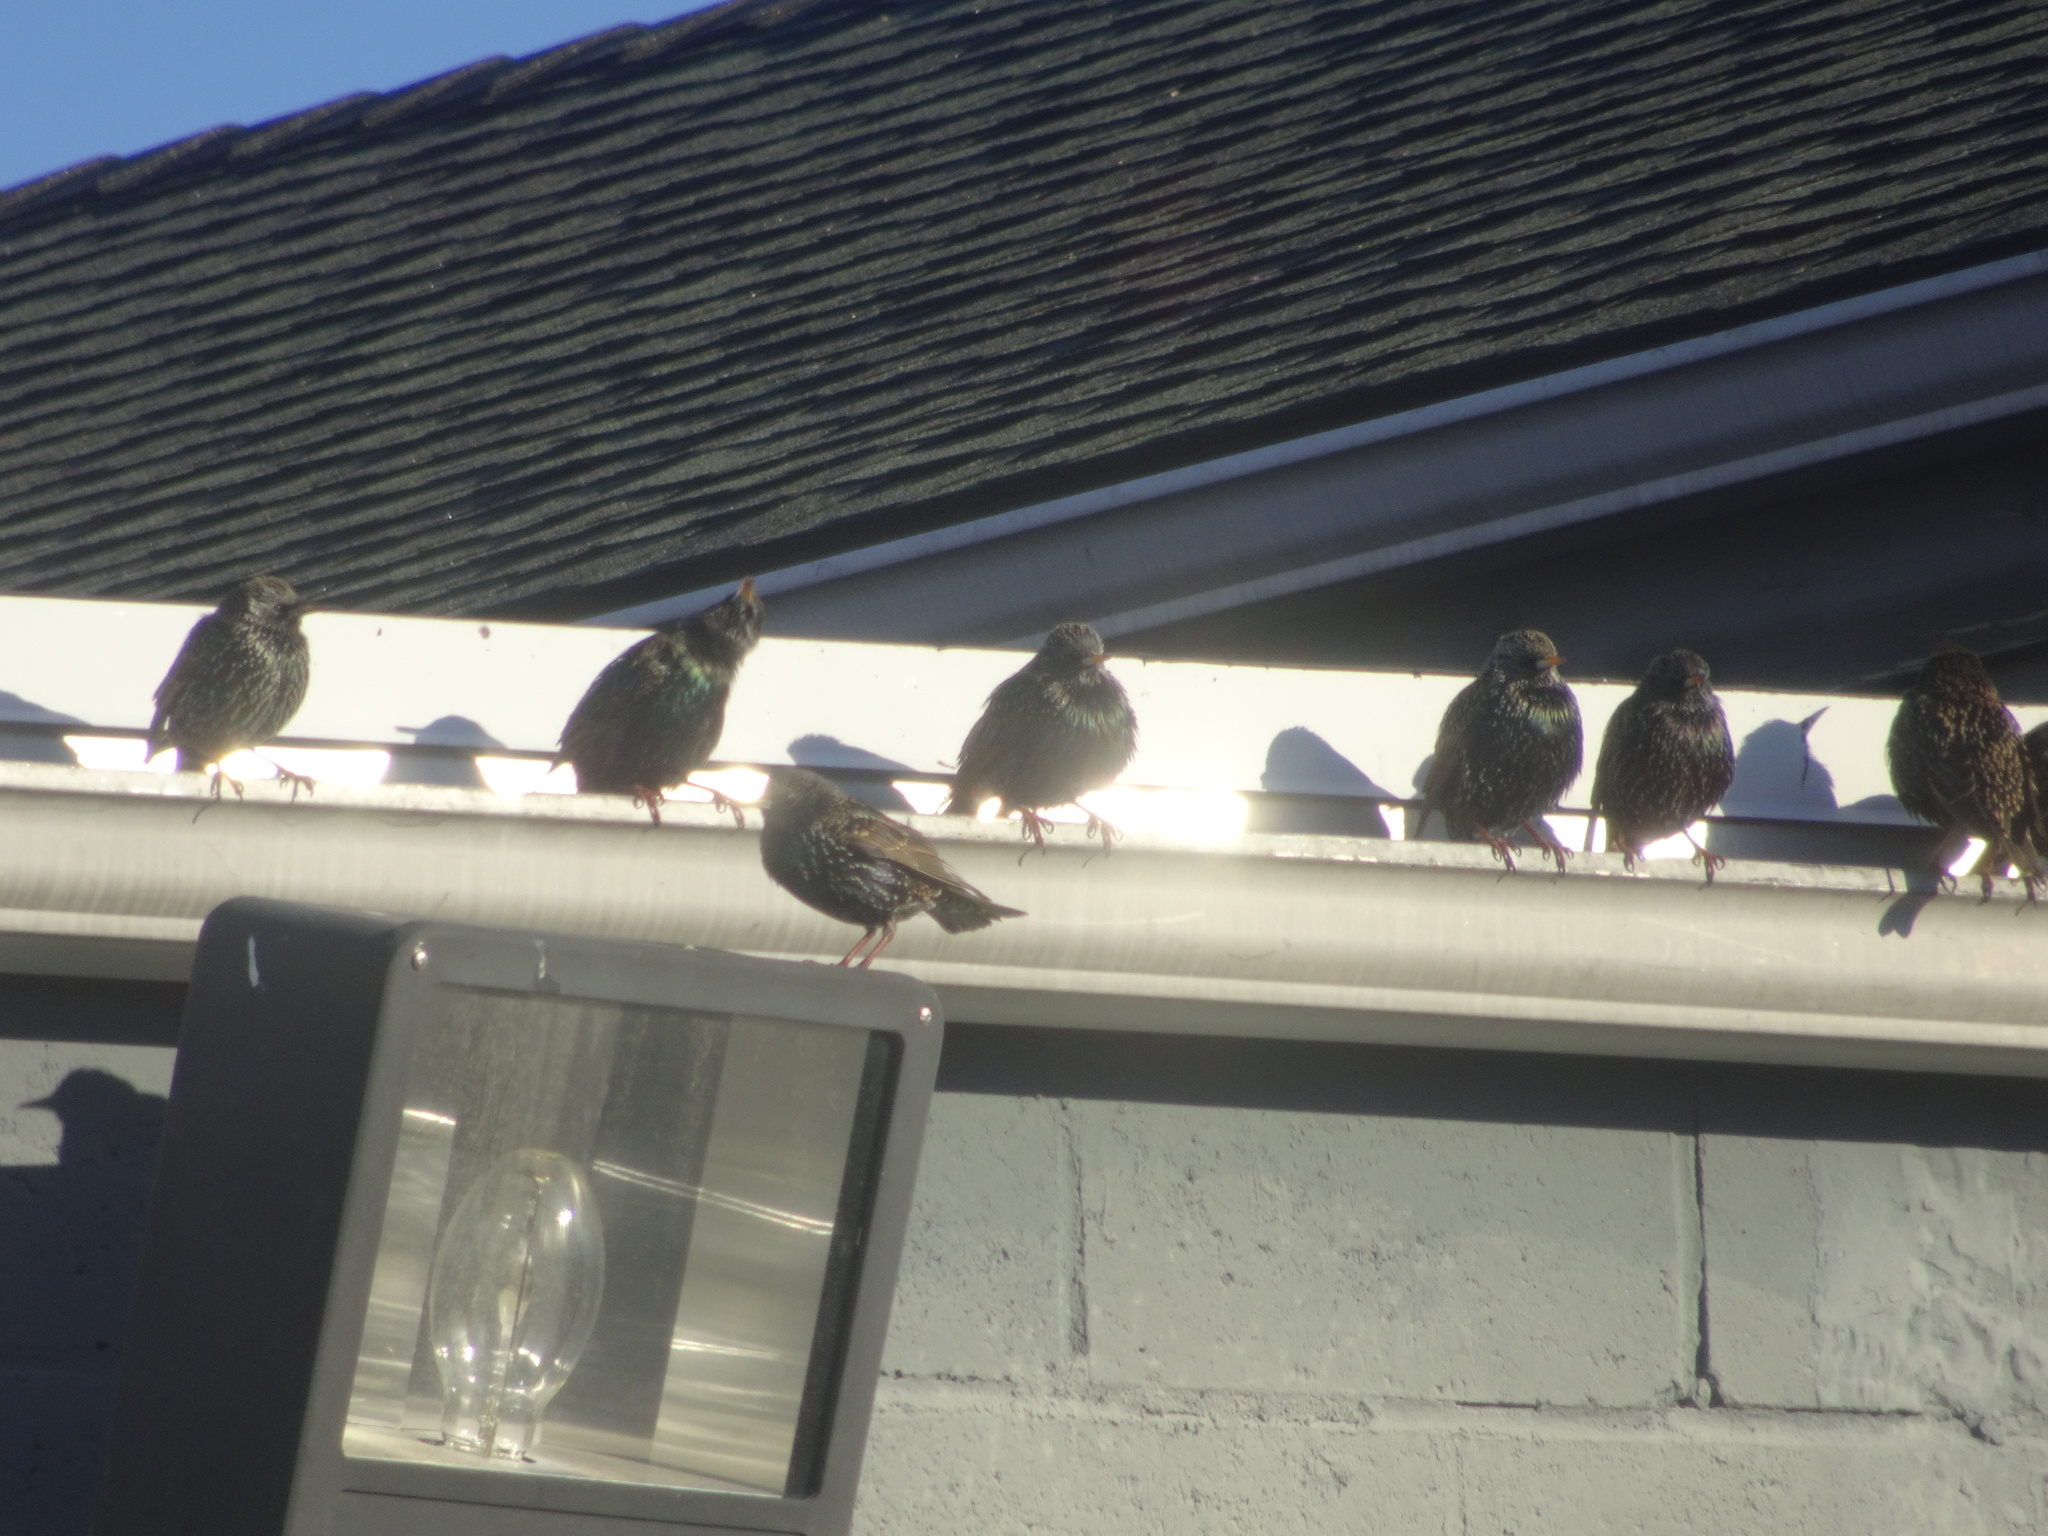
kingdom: Animalia
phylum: Chordata
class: Aves
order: Passeriformes
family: Sturnidae
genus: Sturnus
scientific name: Sturnus vulgaris
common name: Common starling
